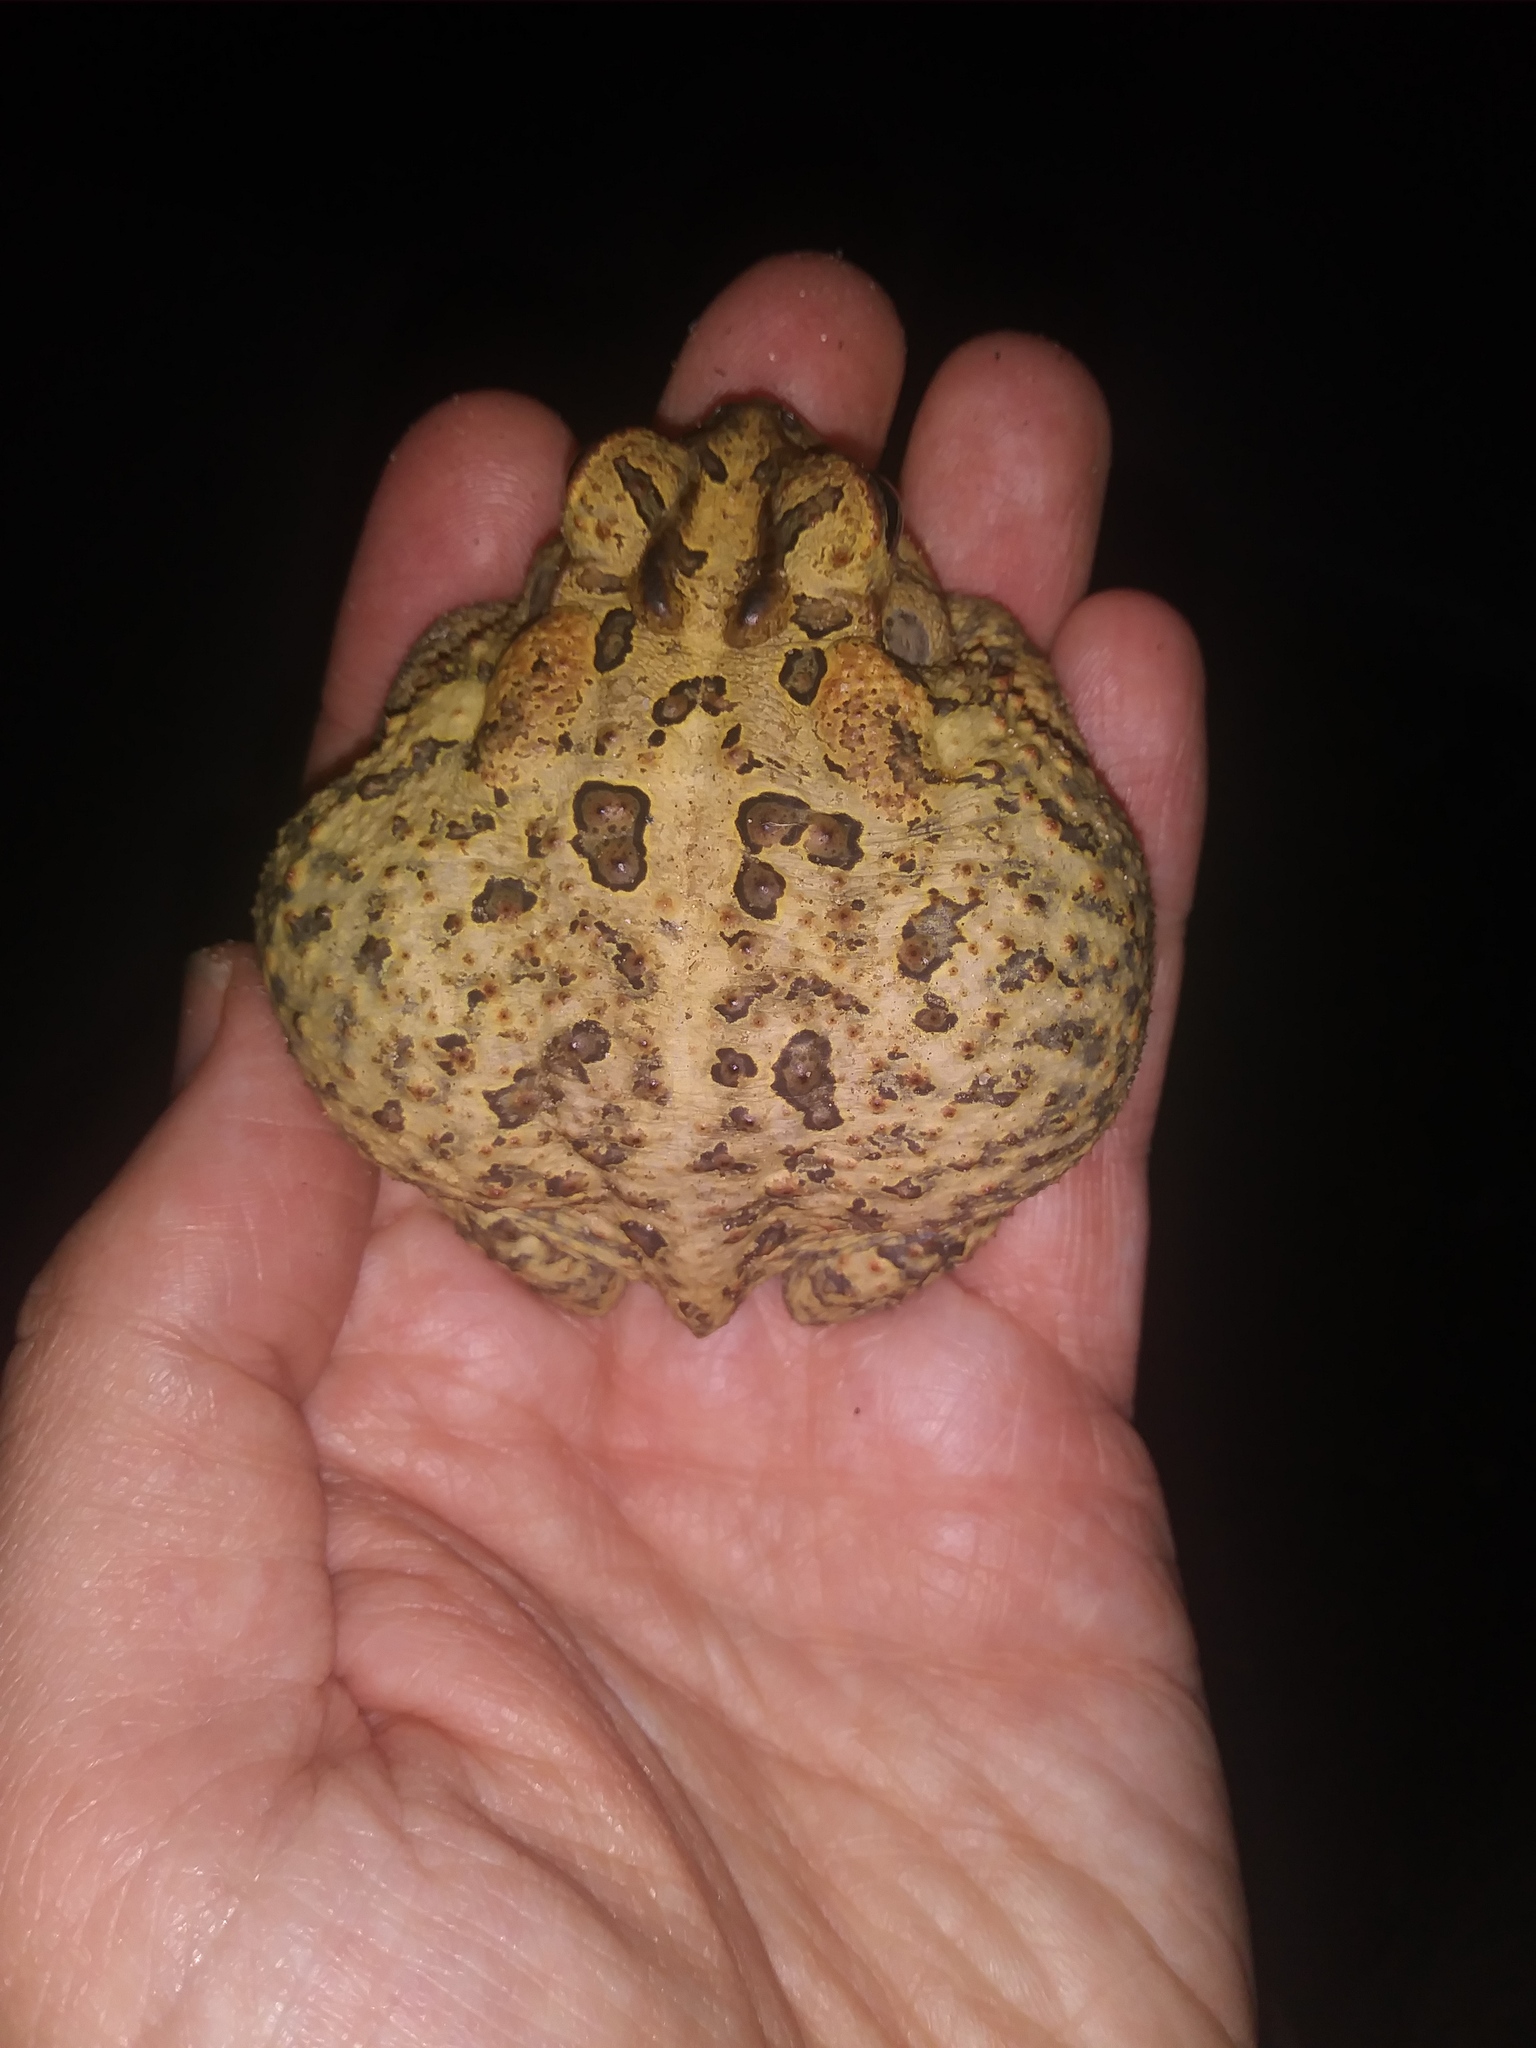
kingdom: Animalia
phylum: Chordata
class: Amphibia
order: Anura
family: Bufonidae
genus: Anaxyrus
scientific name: Anaxyrus terrestris
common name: Southern toad
